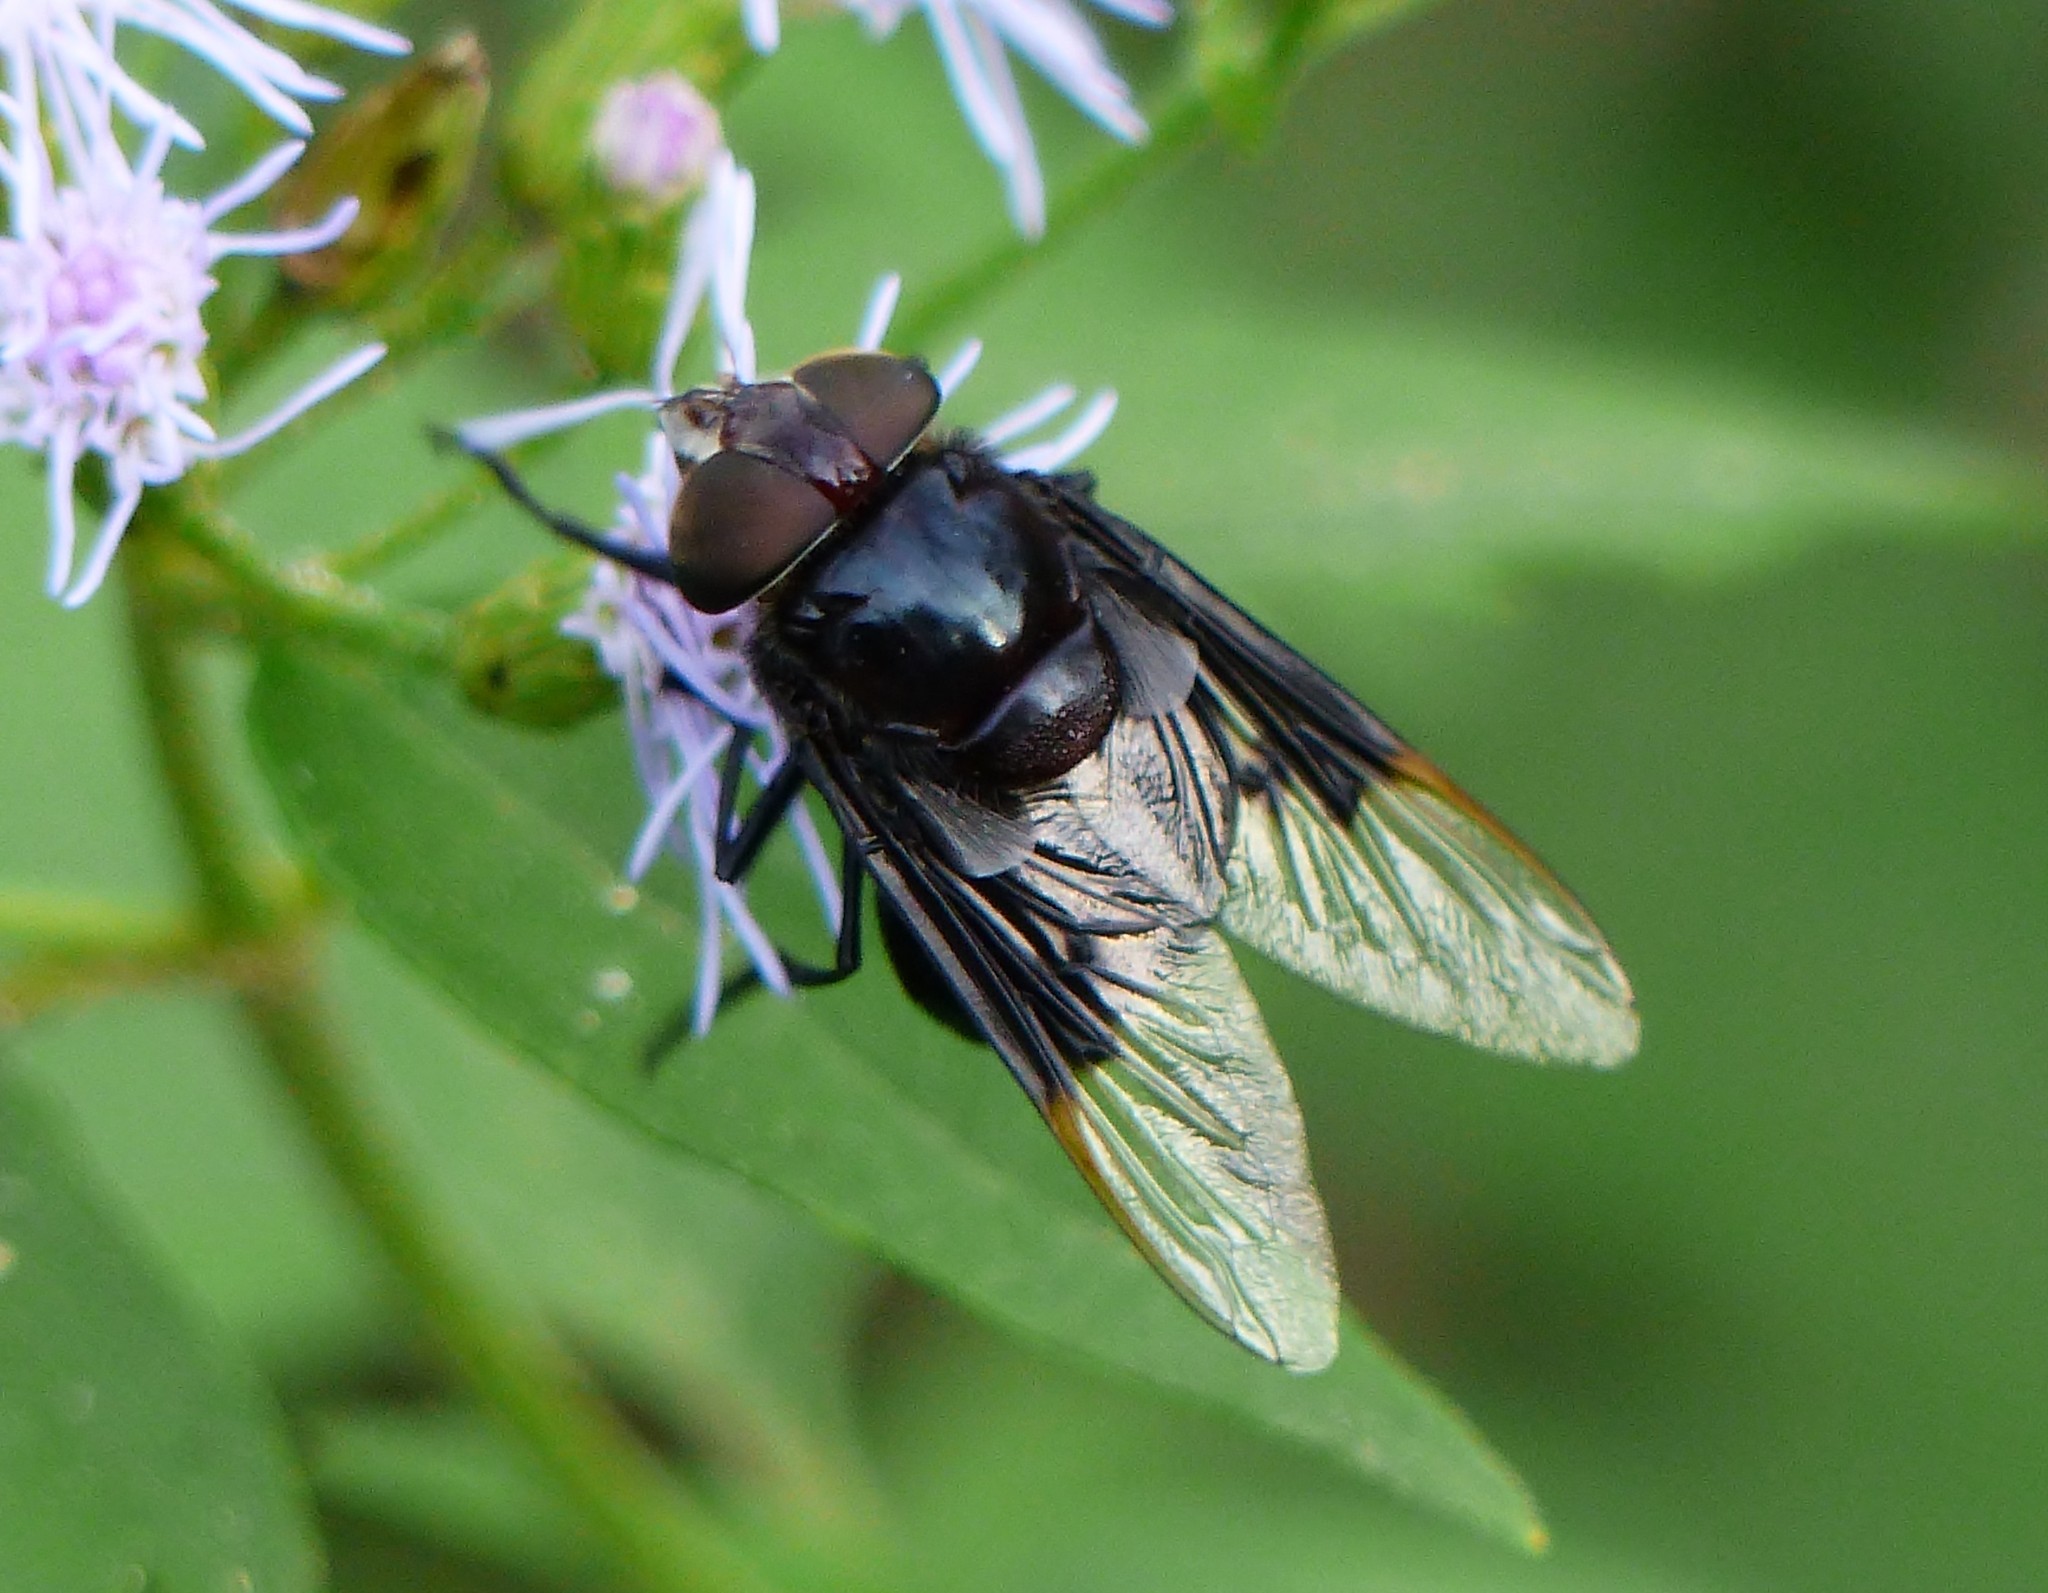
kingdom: Animalia
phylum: Arthropoda
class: Insecta
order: Diptera
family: Syrphidae
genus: Copestylum
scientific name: Copestylum mexicanum
